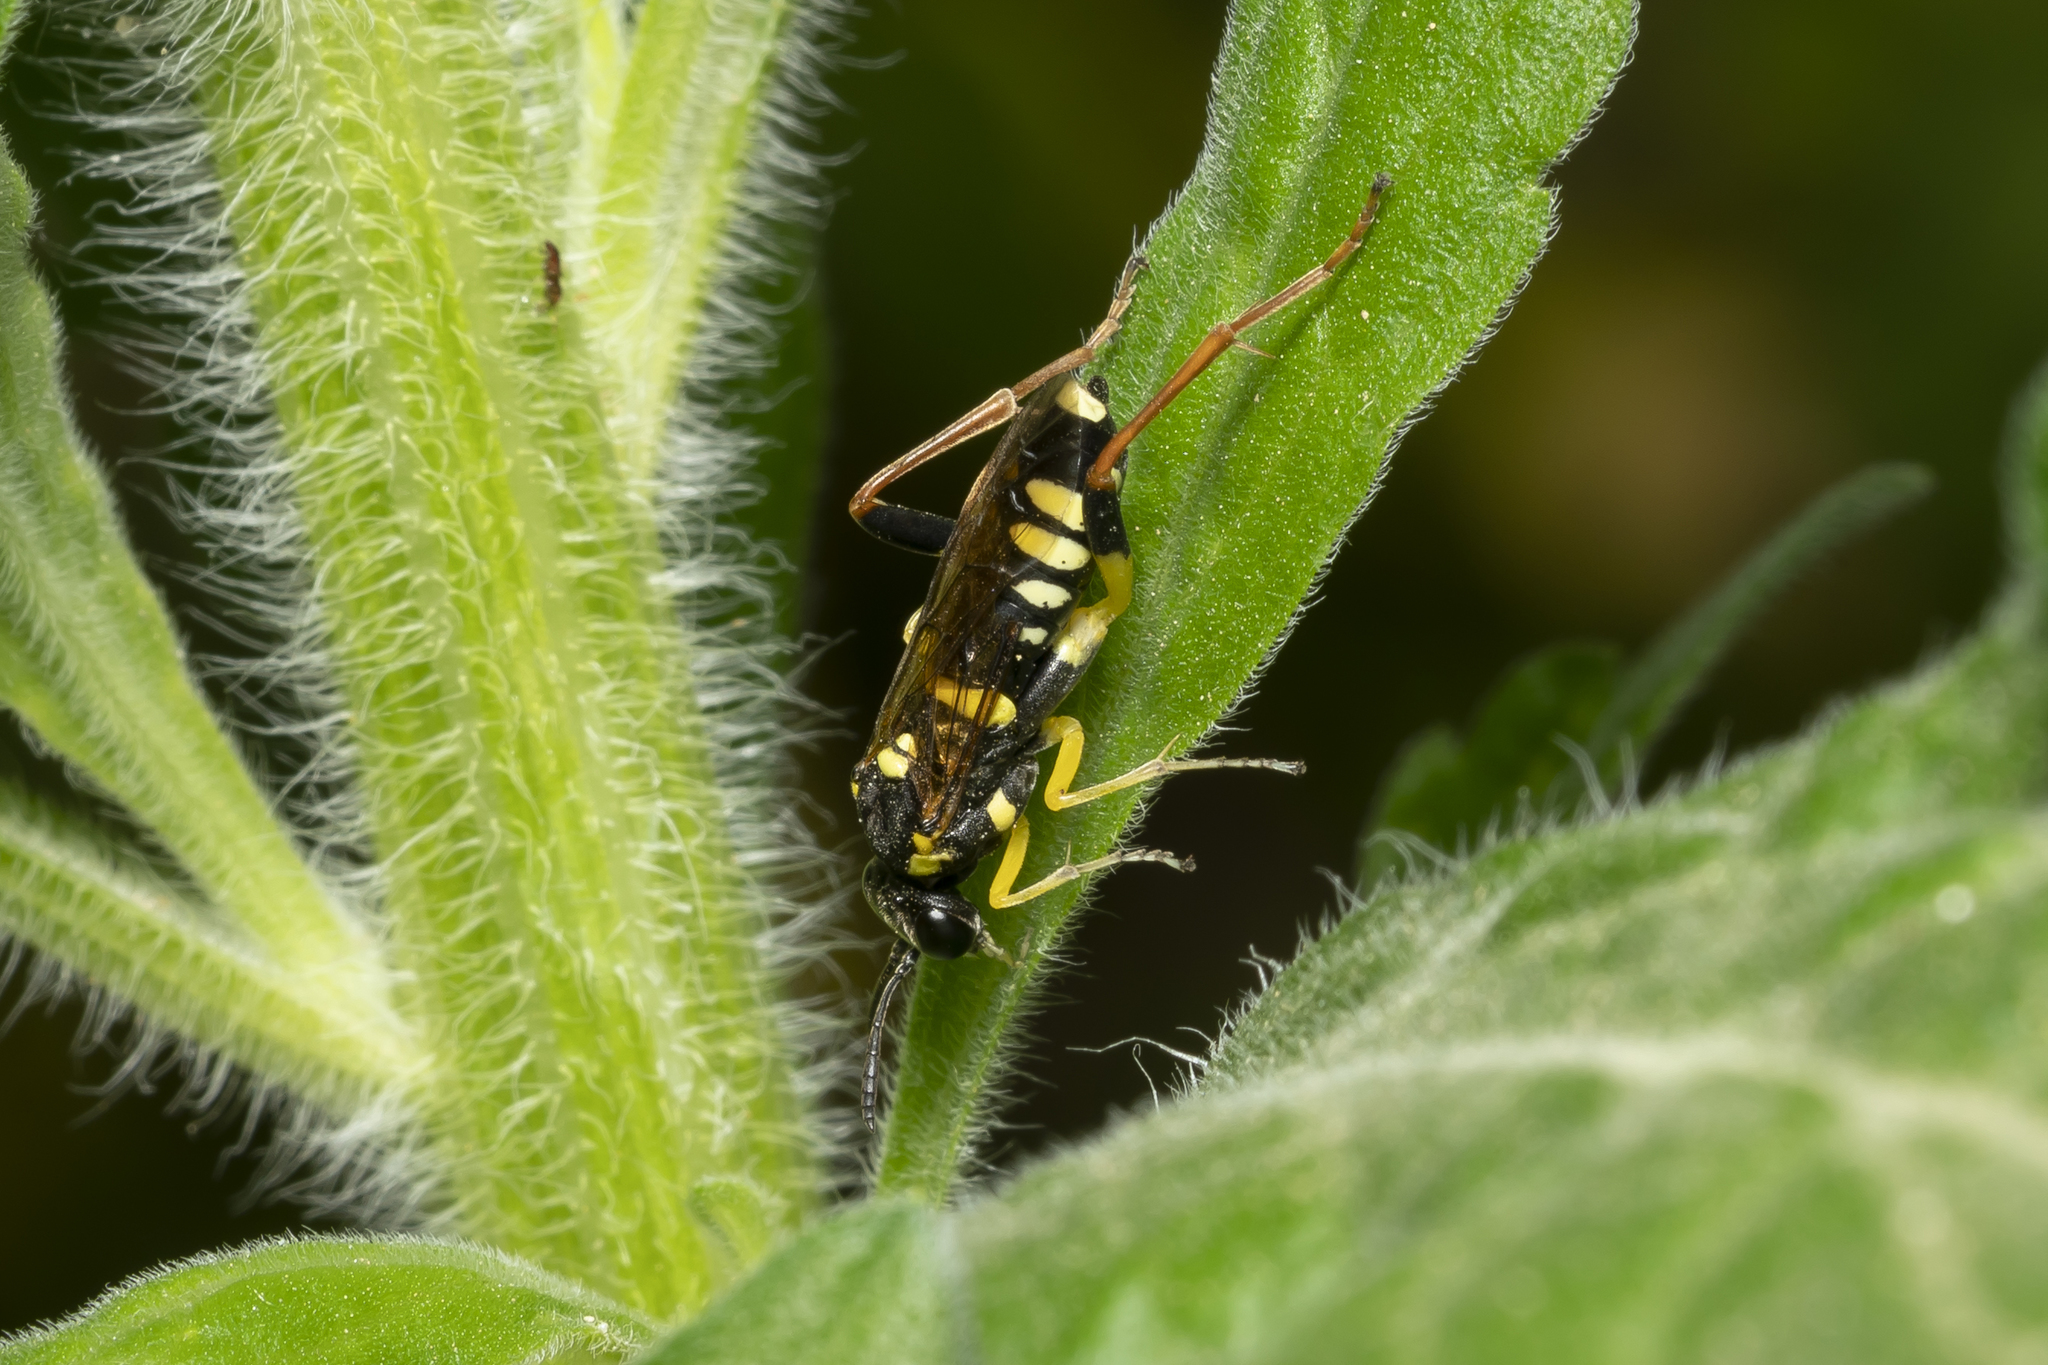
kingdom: Animalia
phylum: Arthropoda
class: Insecta
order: Hymenoptera
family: Tenthredinidae
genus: Macrophya
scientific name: Macrophya postica
